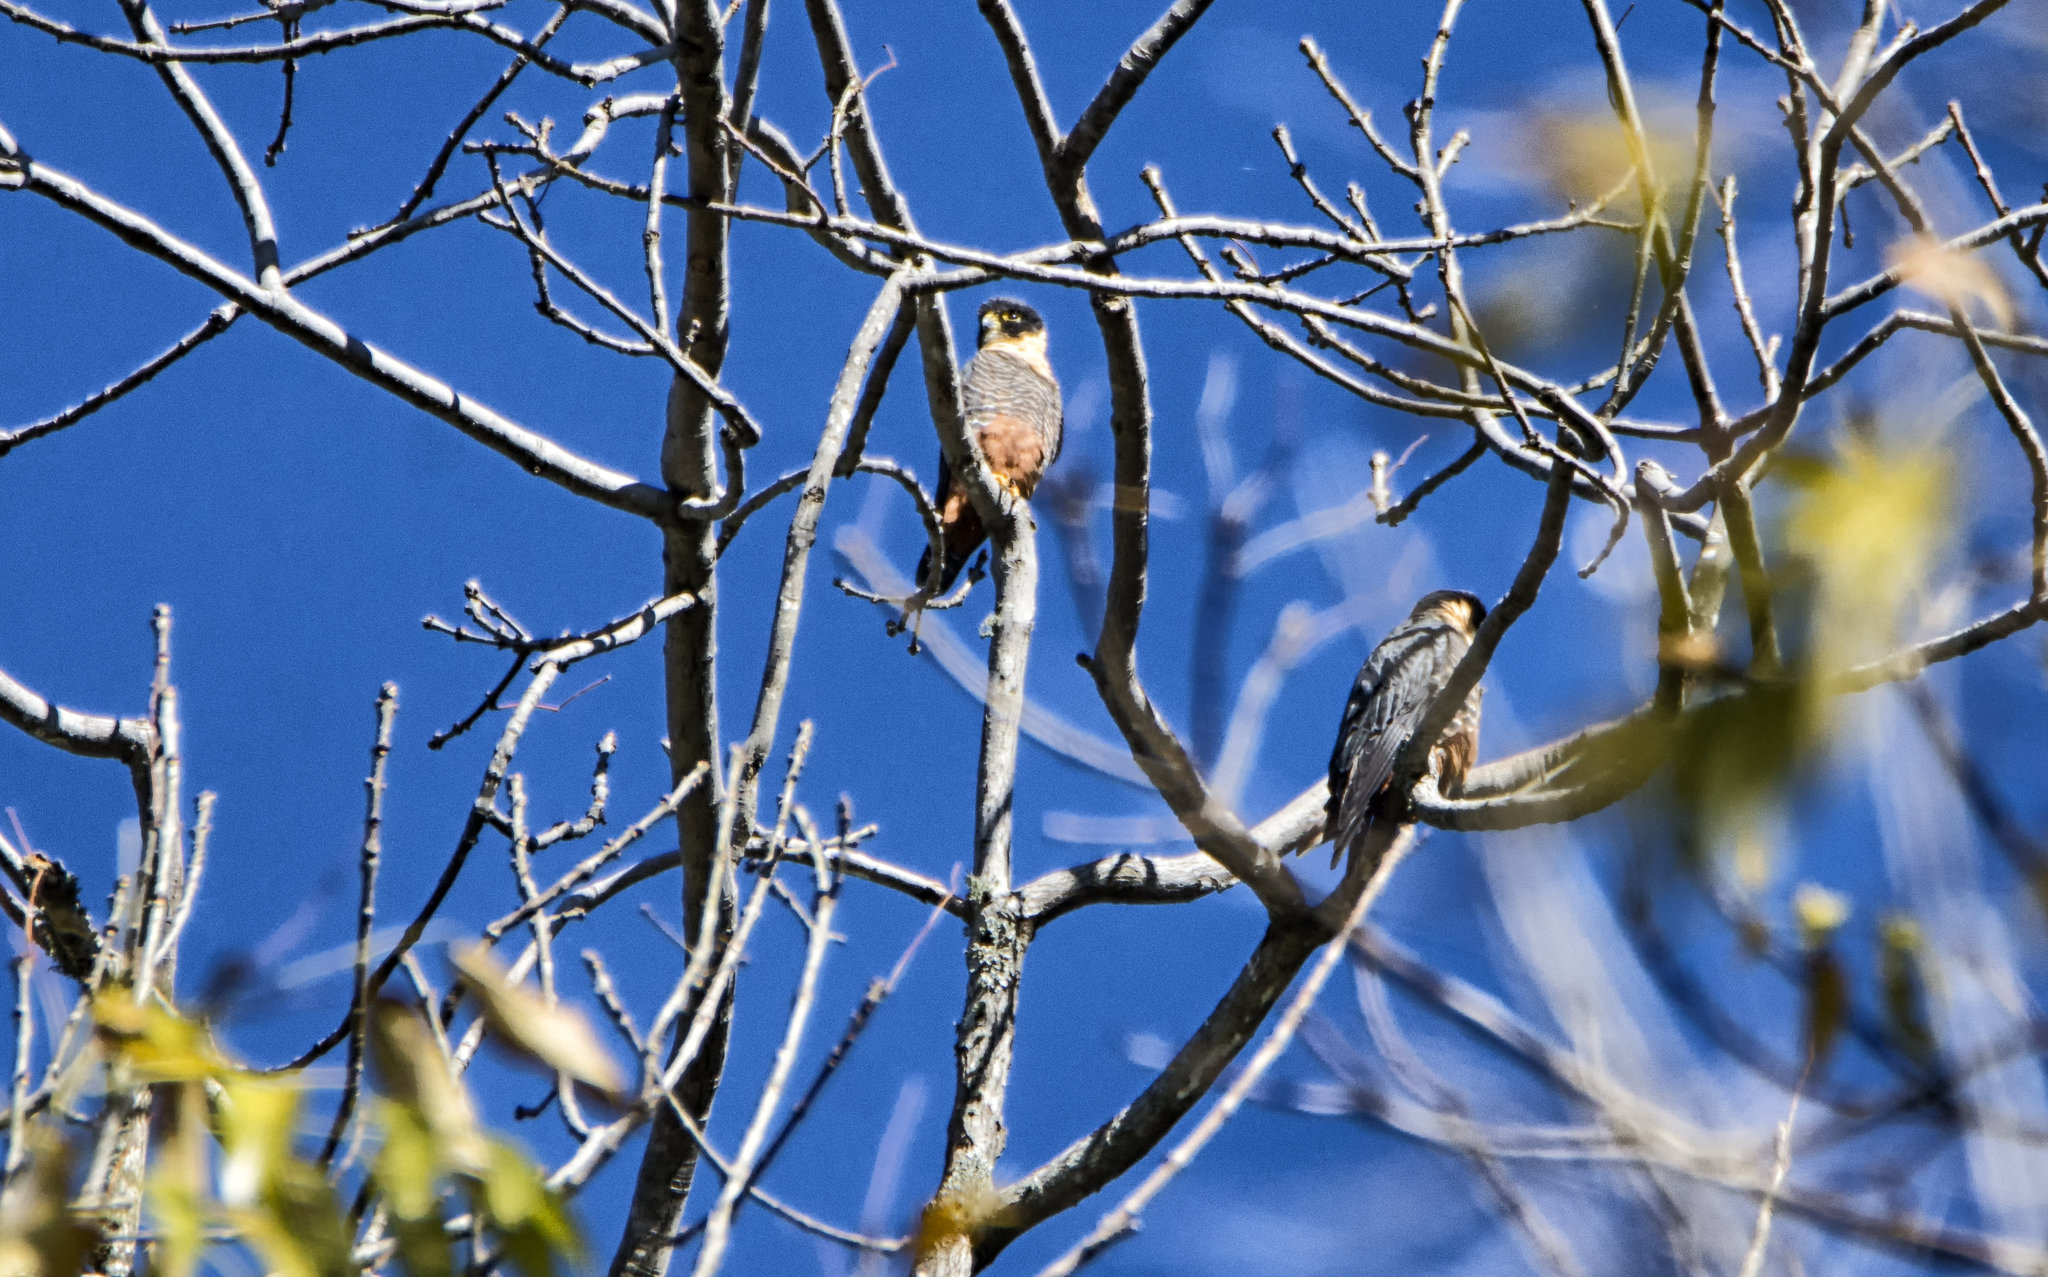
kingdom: Animalia
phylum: Chordata
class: Aves
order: Falconiformes
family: Falconidae
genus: Falco
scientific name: Falco rufigularis
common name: Bat falcon
